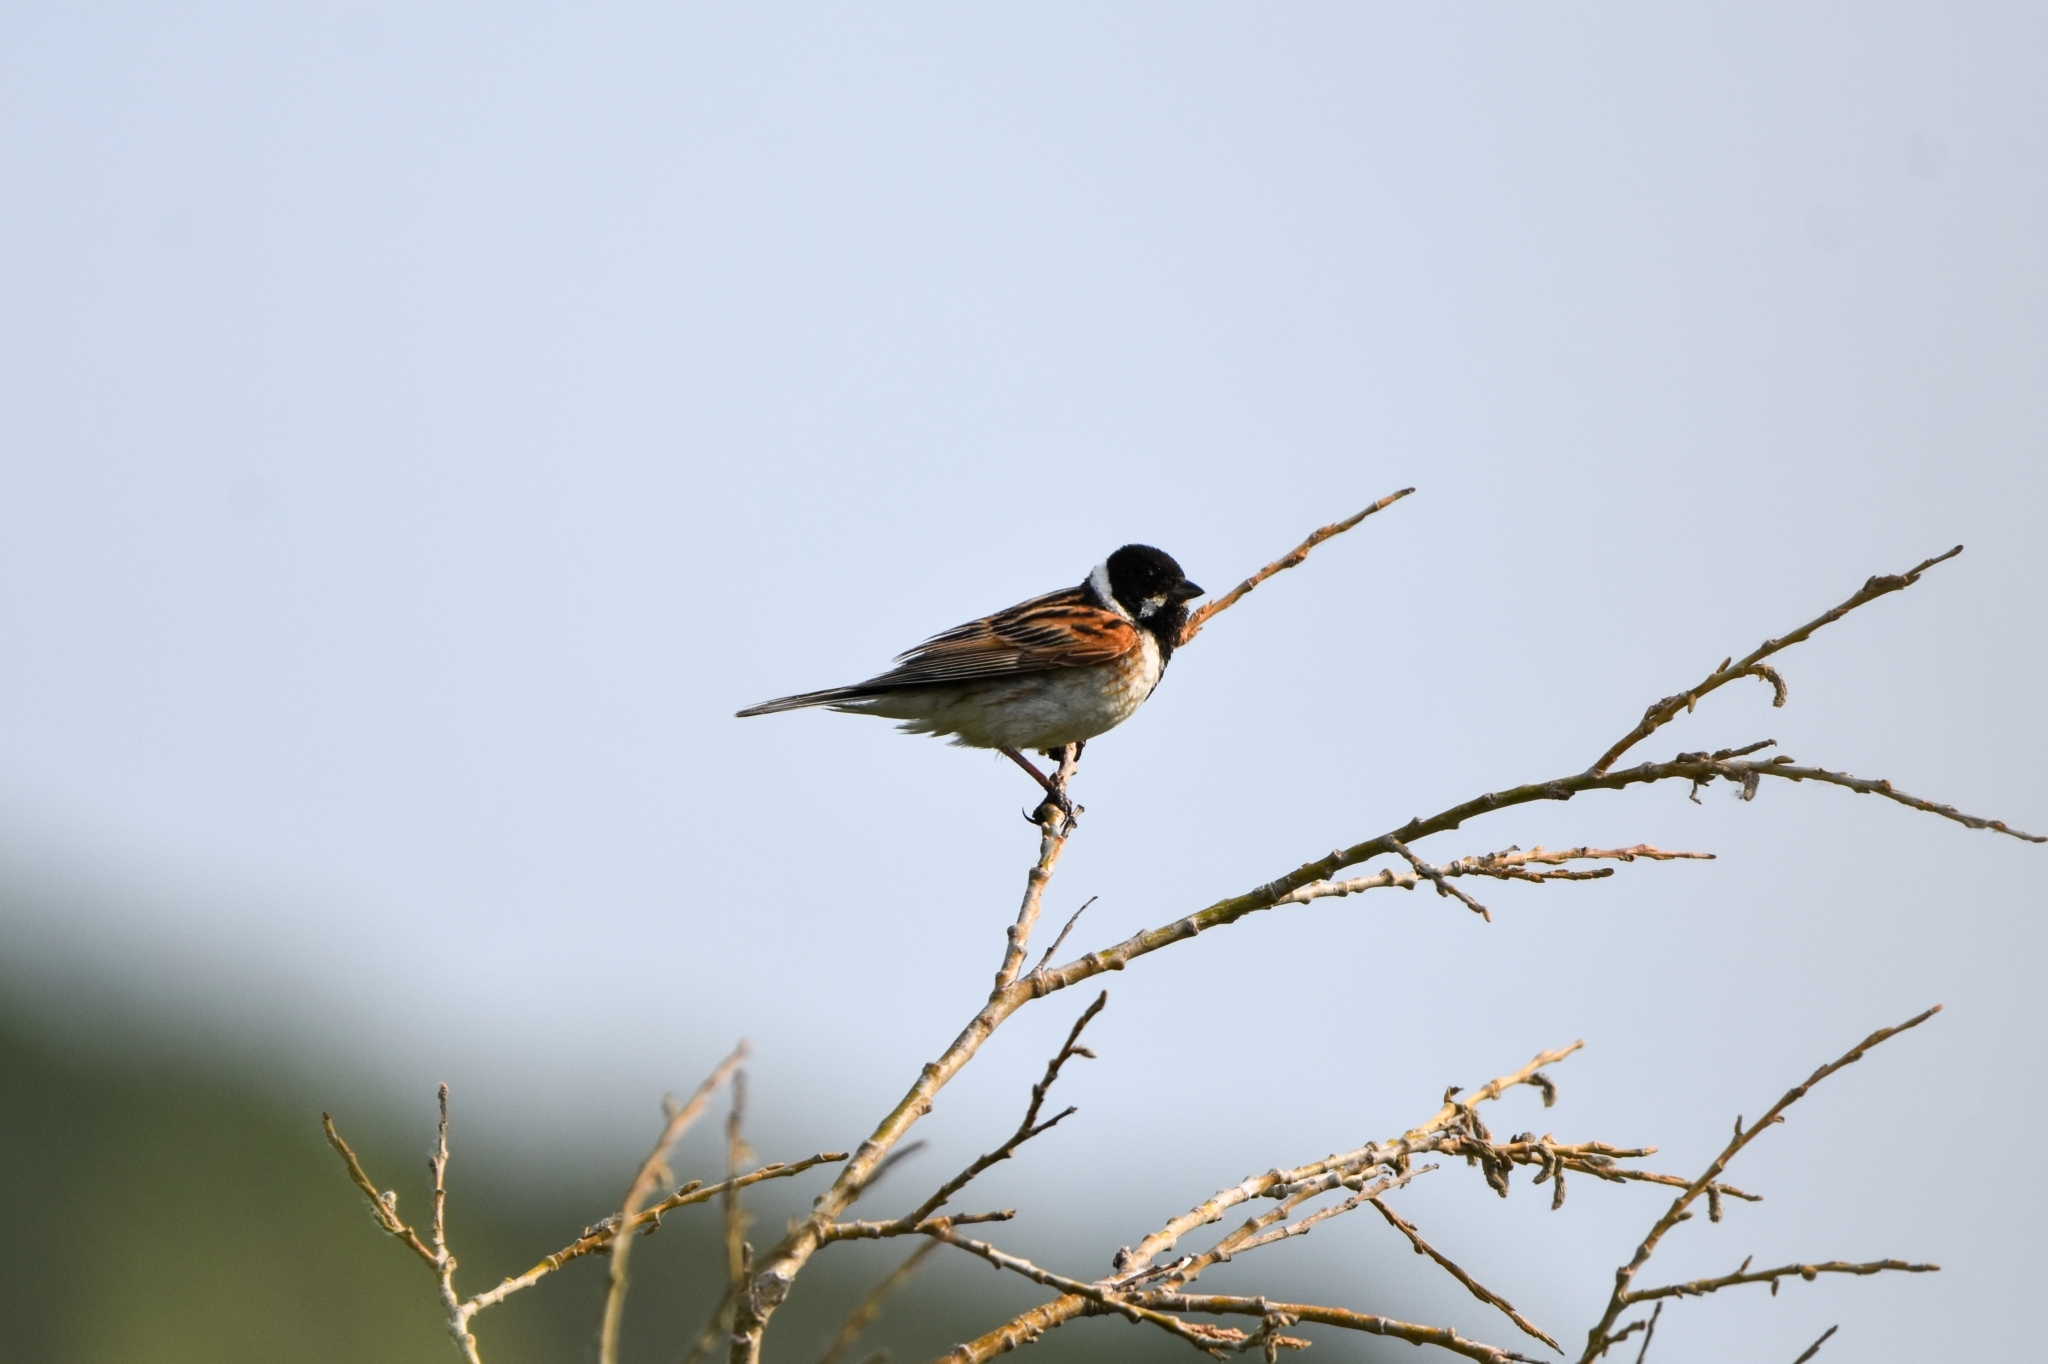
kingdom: Animalia
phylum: Chordata
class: Aves
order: Passeriformes
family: Emberizidae
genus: Emberiza
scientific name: Emberiza schoeniclus
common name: Reed bunting
